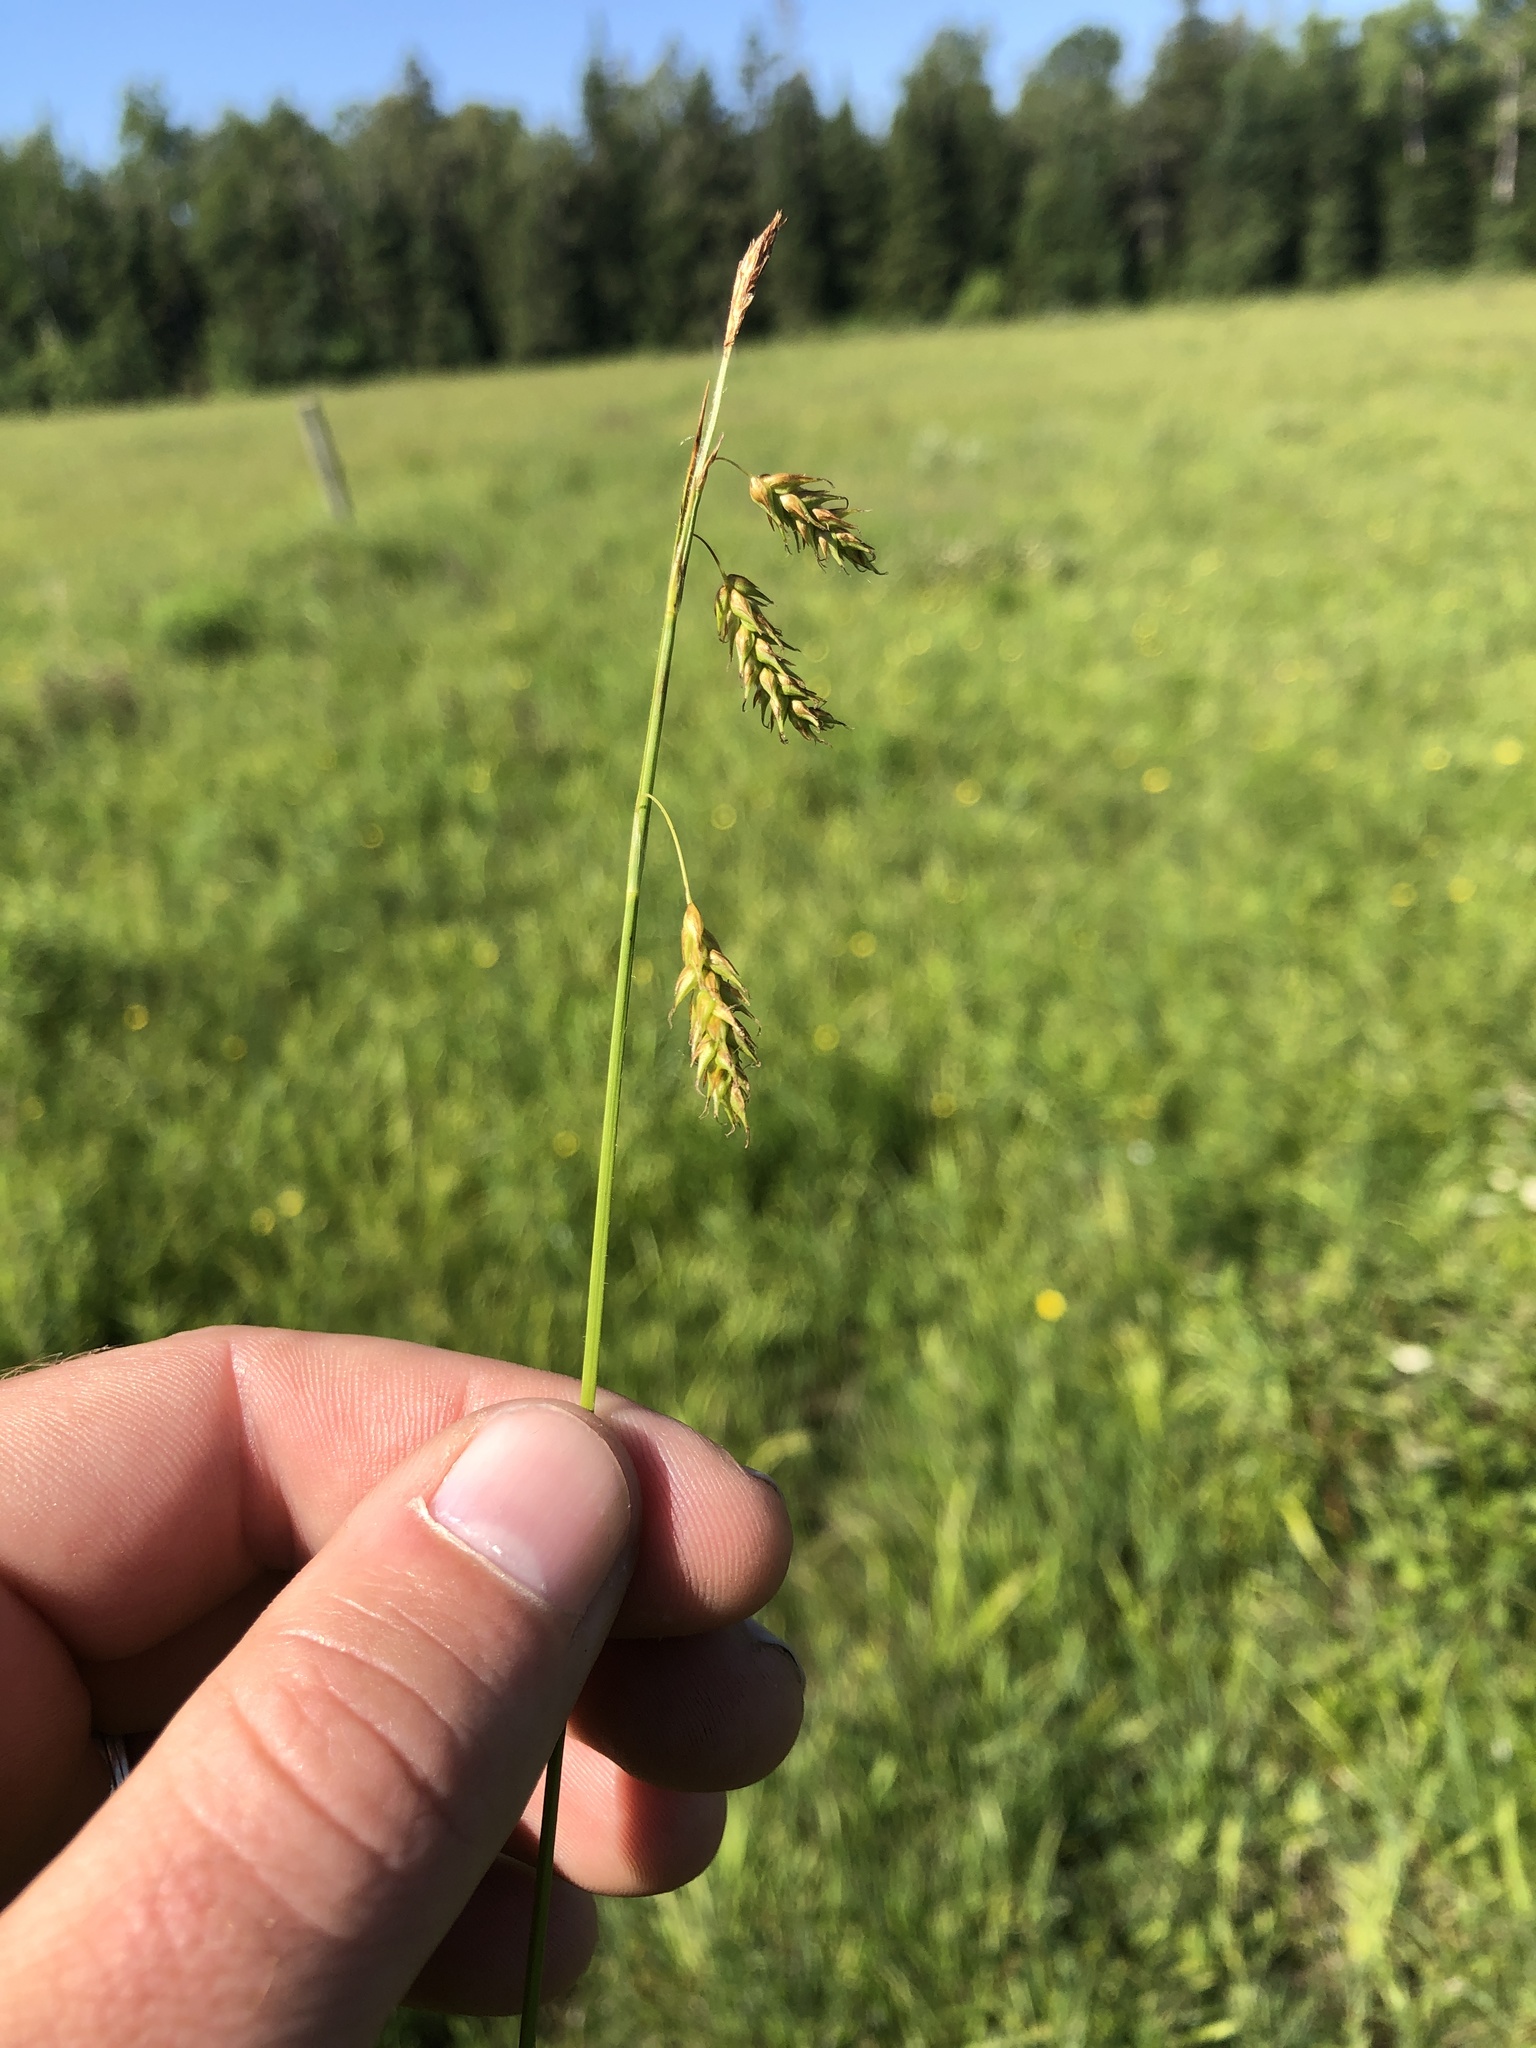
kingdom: Plantae
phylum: Tracheophyta
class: Liliopsida
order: Poales
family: Cyperaceae
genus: Carex
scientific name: Carex castanea
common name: Chestnut sedge
